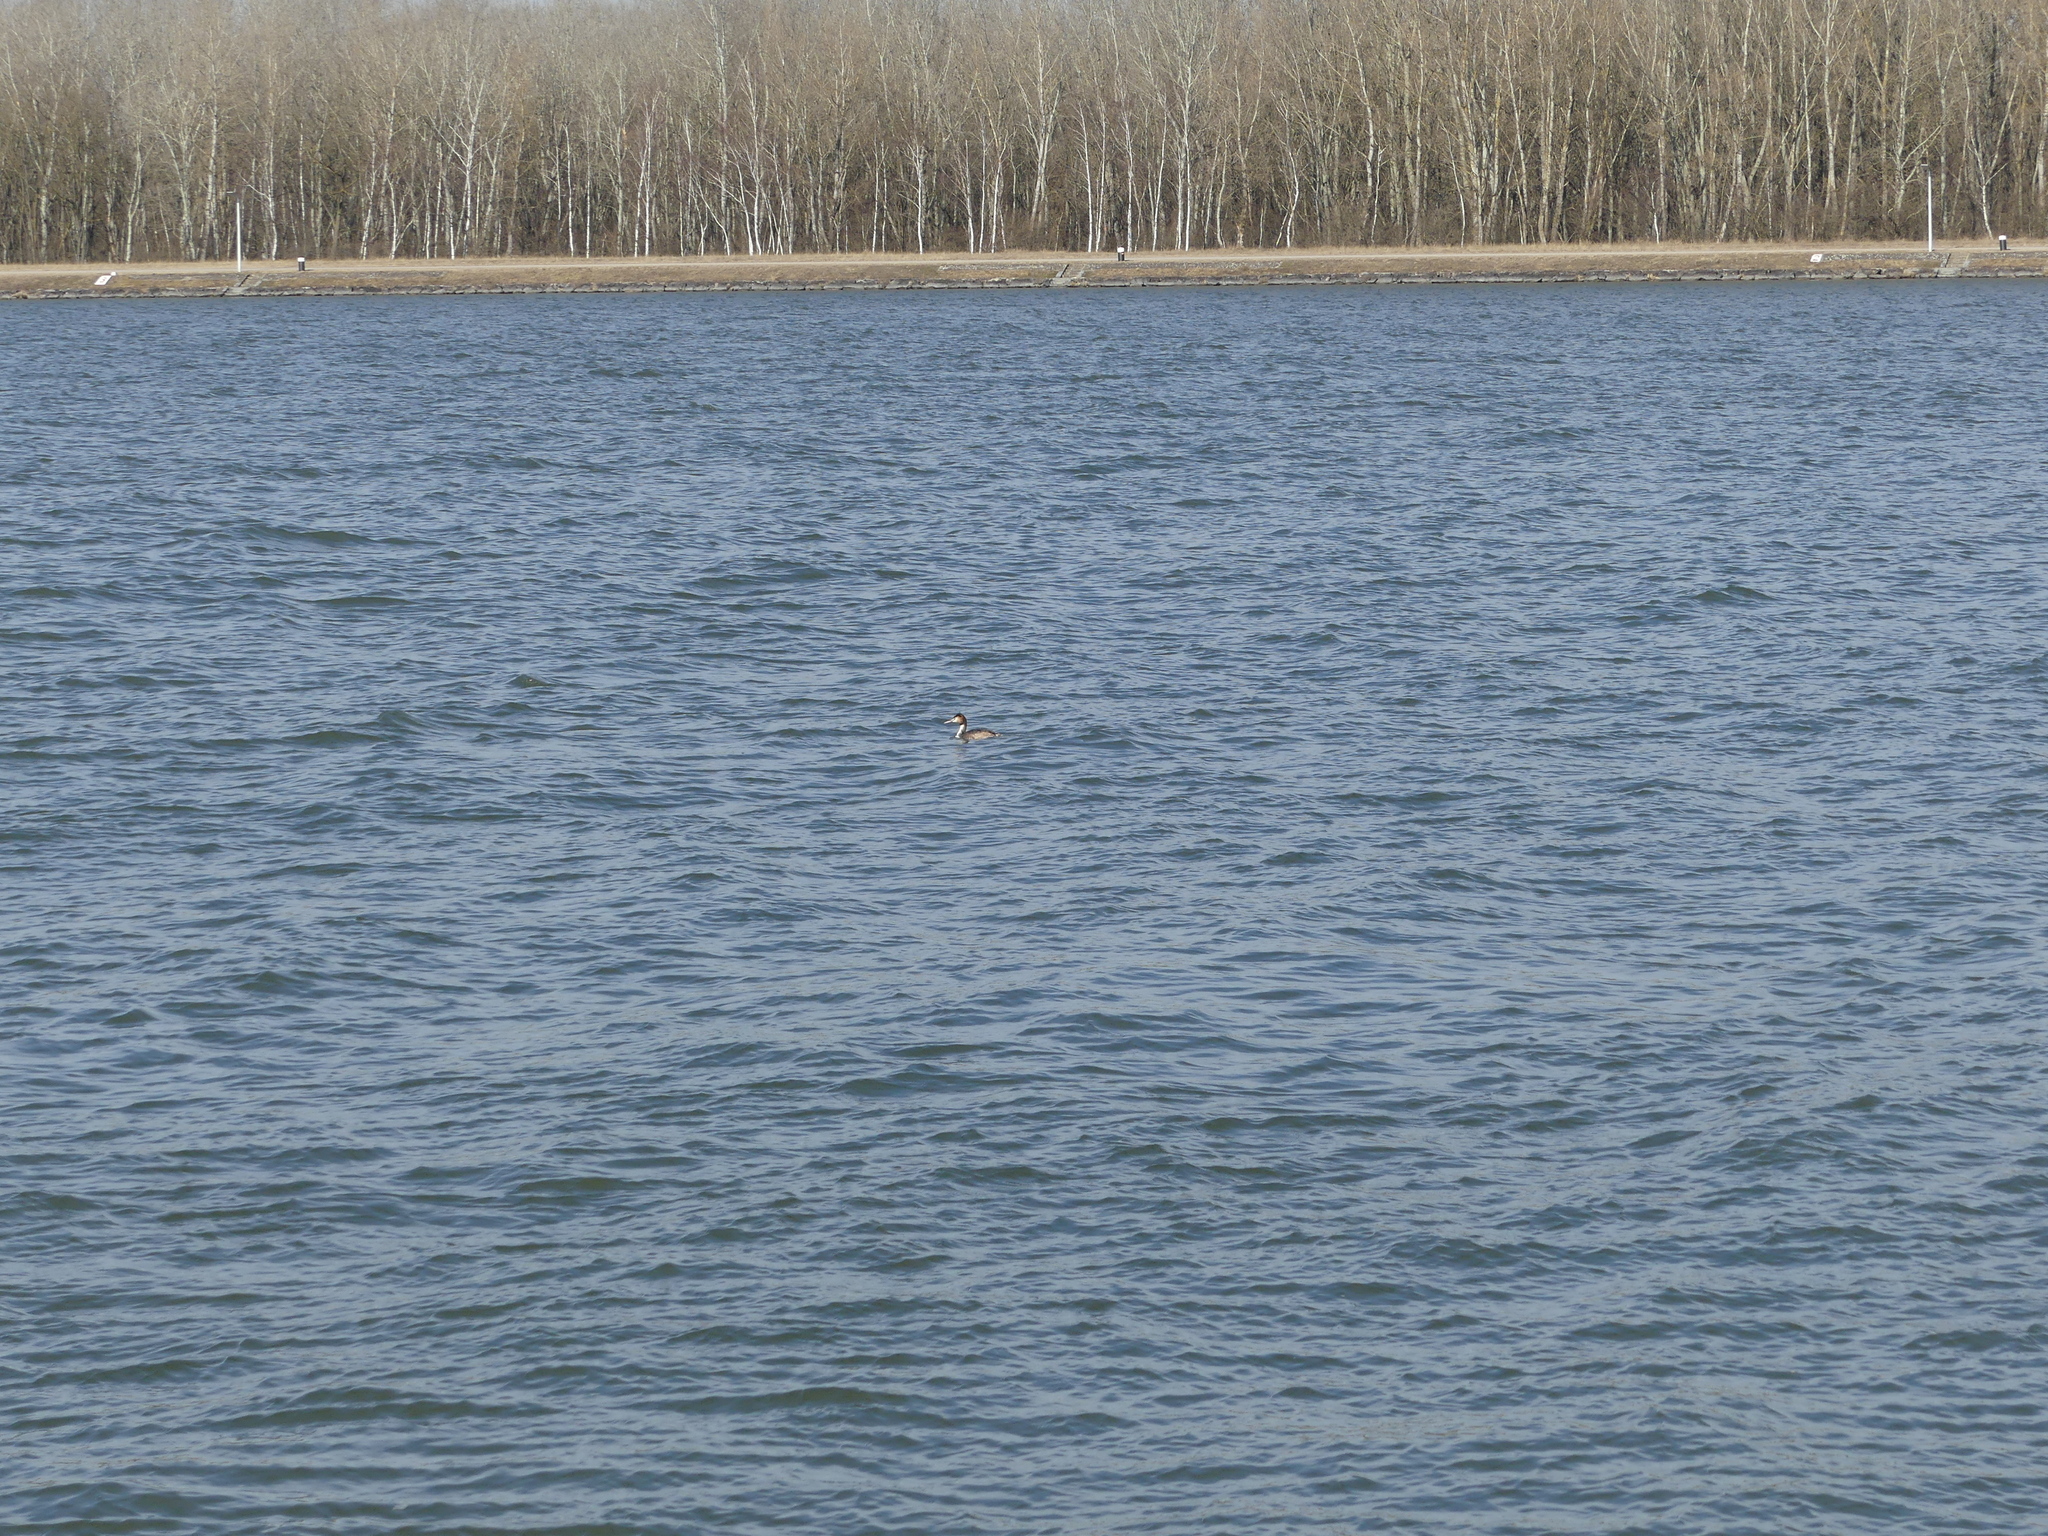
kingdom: Animalia
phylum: Chordata
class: Aves
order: Podicipediformes
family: Podicipedidae
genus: Podiceps
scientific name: Podiceps cristatus
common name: Great crested grebe
